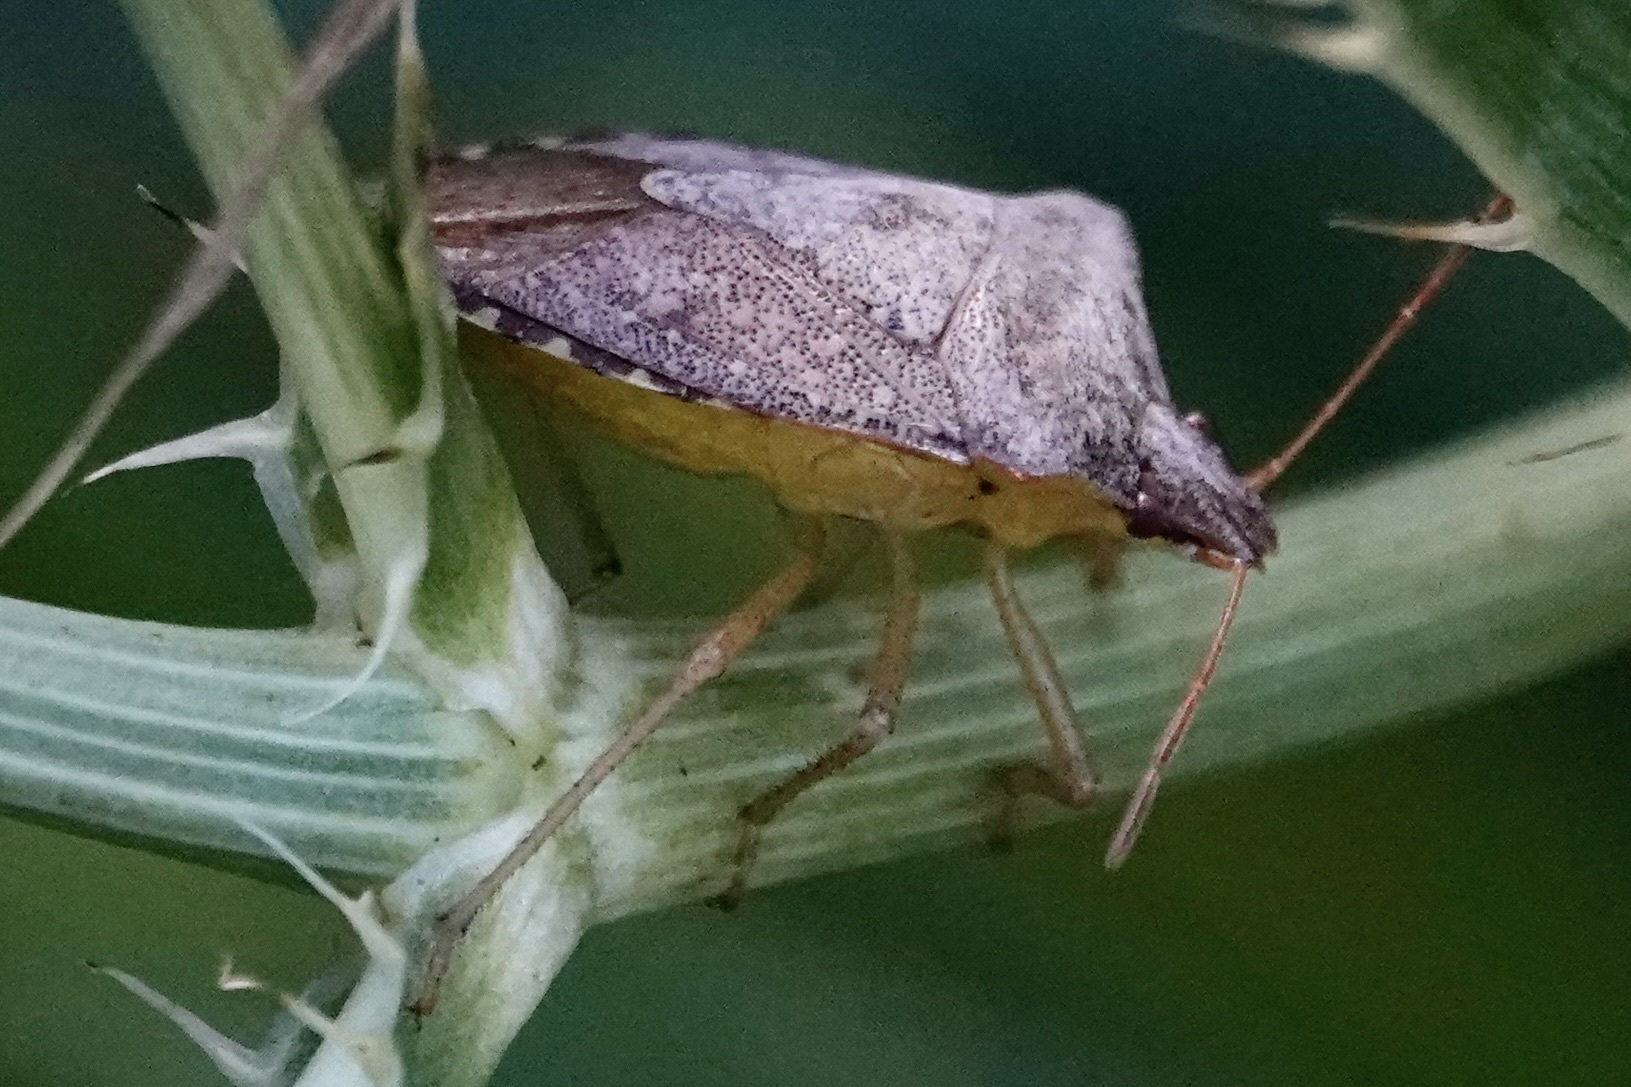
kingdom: Animalia
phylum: Arthropoda
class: Insecta
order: Hemiptera
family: Pentatomidae
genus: Euschistus
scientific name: Euschistus servus
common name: Brown stink bug
